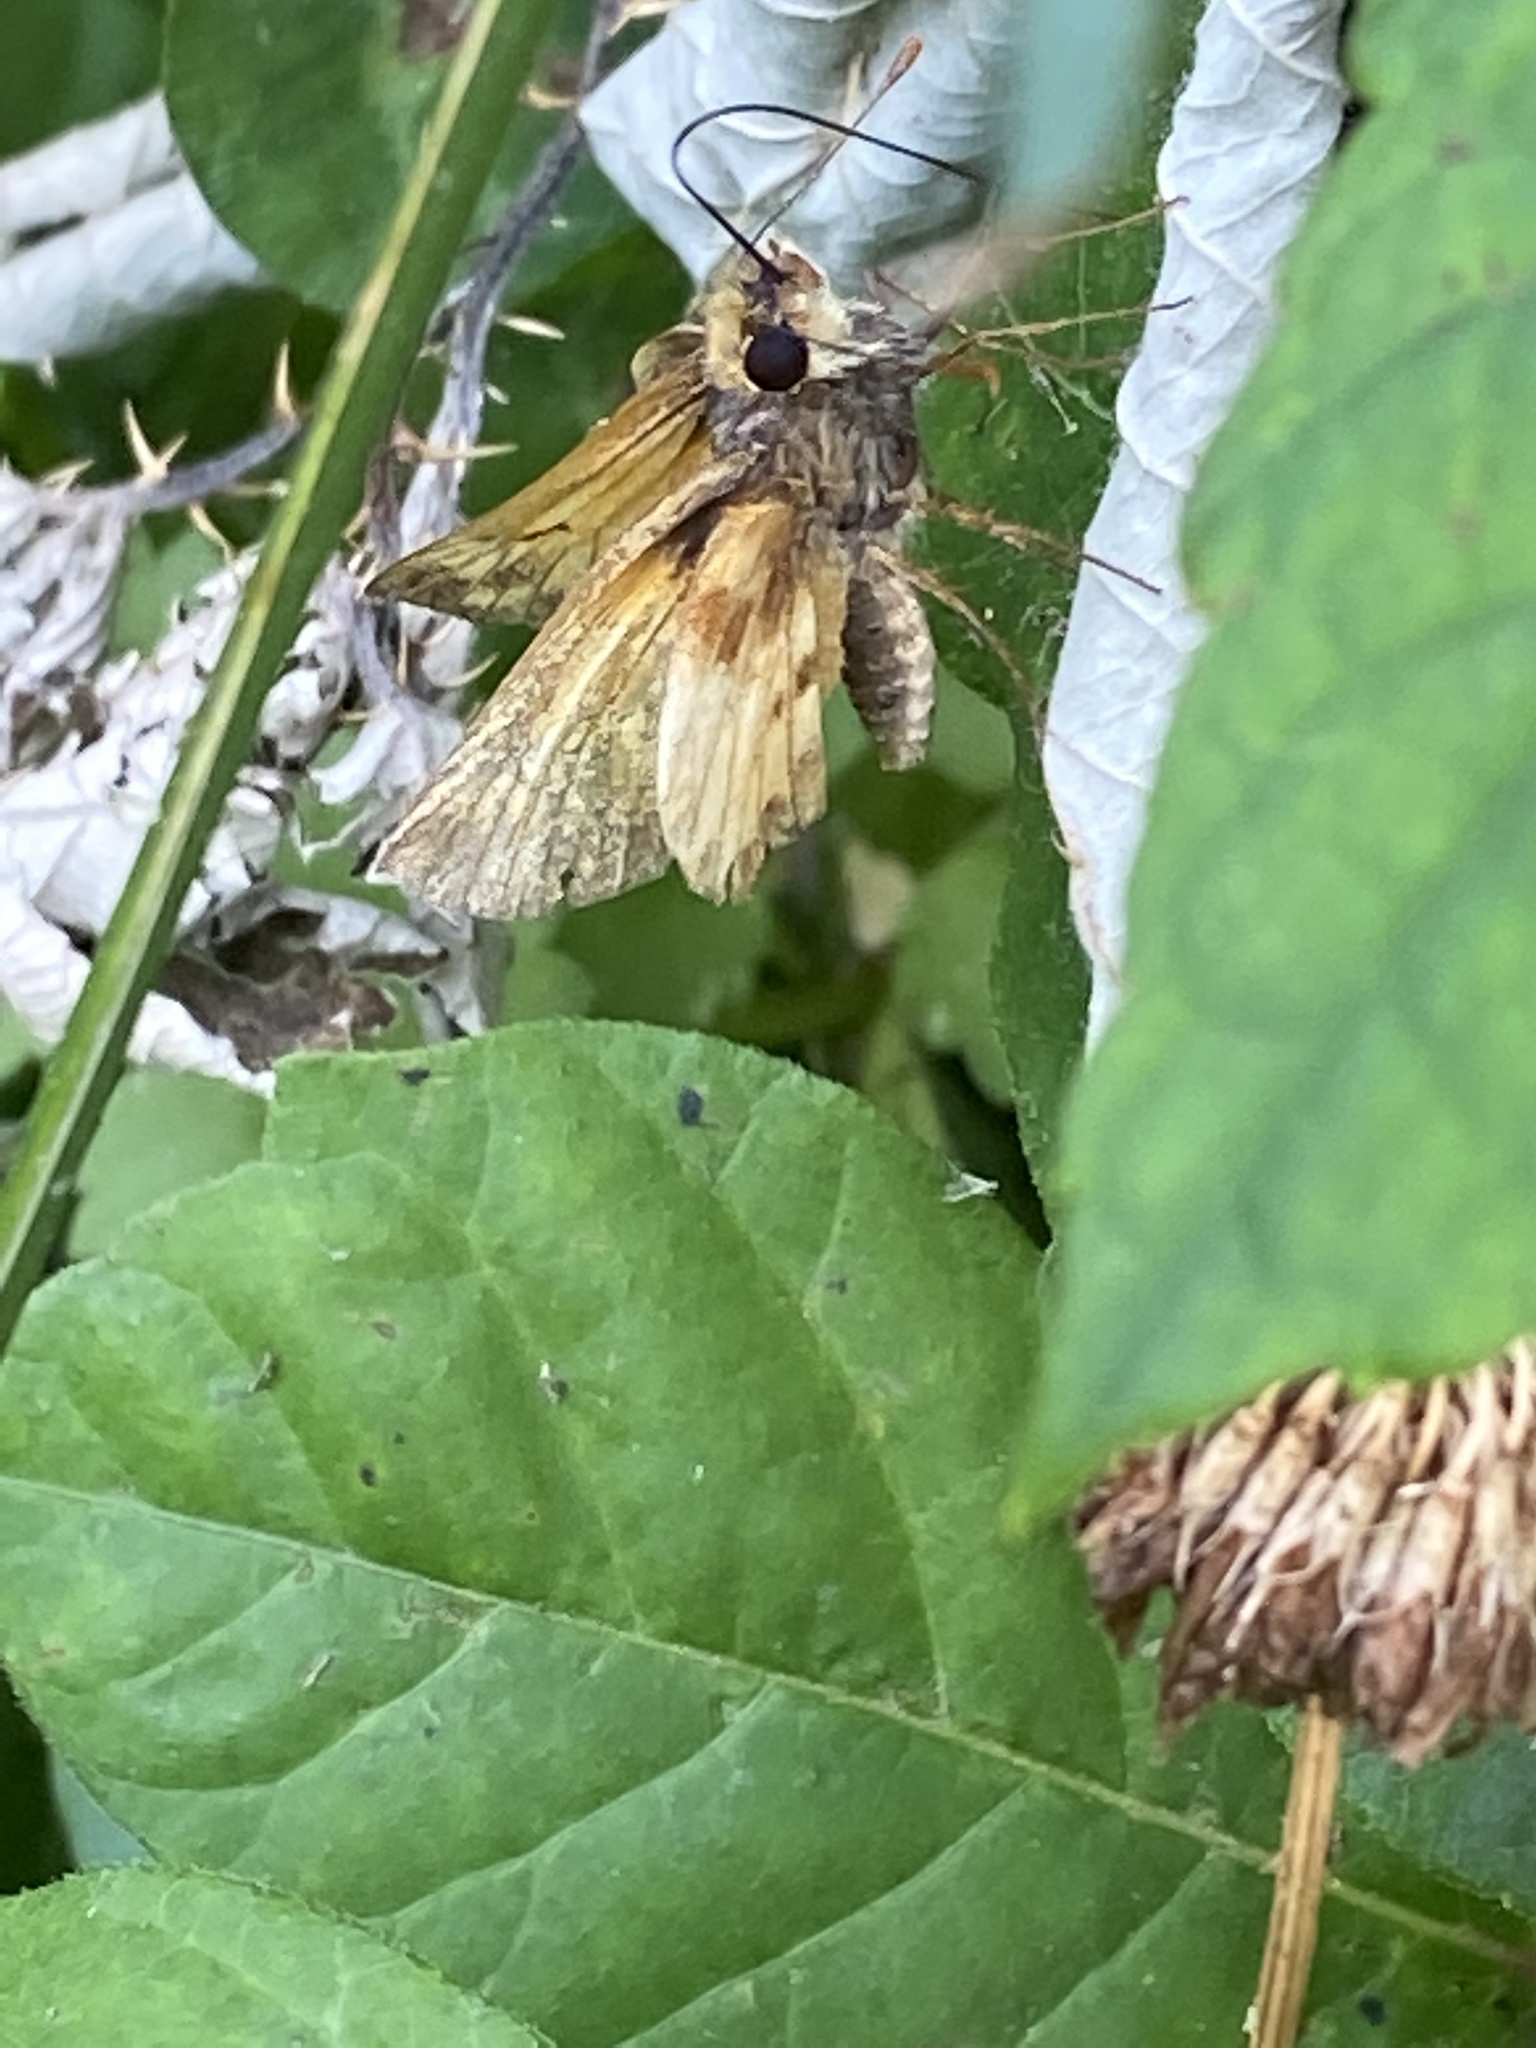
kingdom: Animalia
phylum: Arthropoda
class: Insecta
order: Lepidoptera
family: Hesperiidae
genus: Lon
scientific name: Lon zabulon
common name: Zabulon skipper
